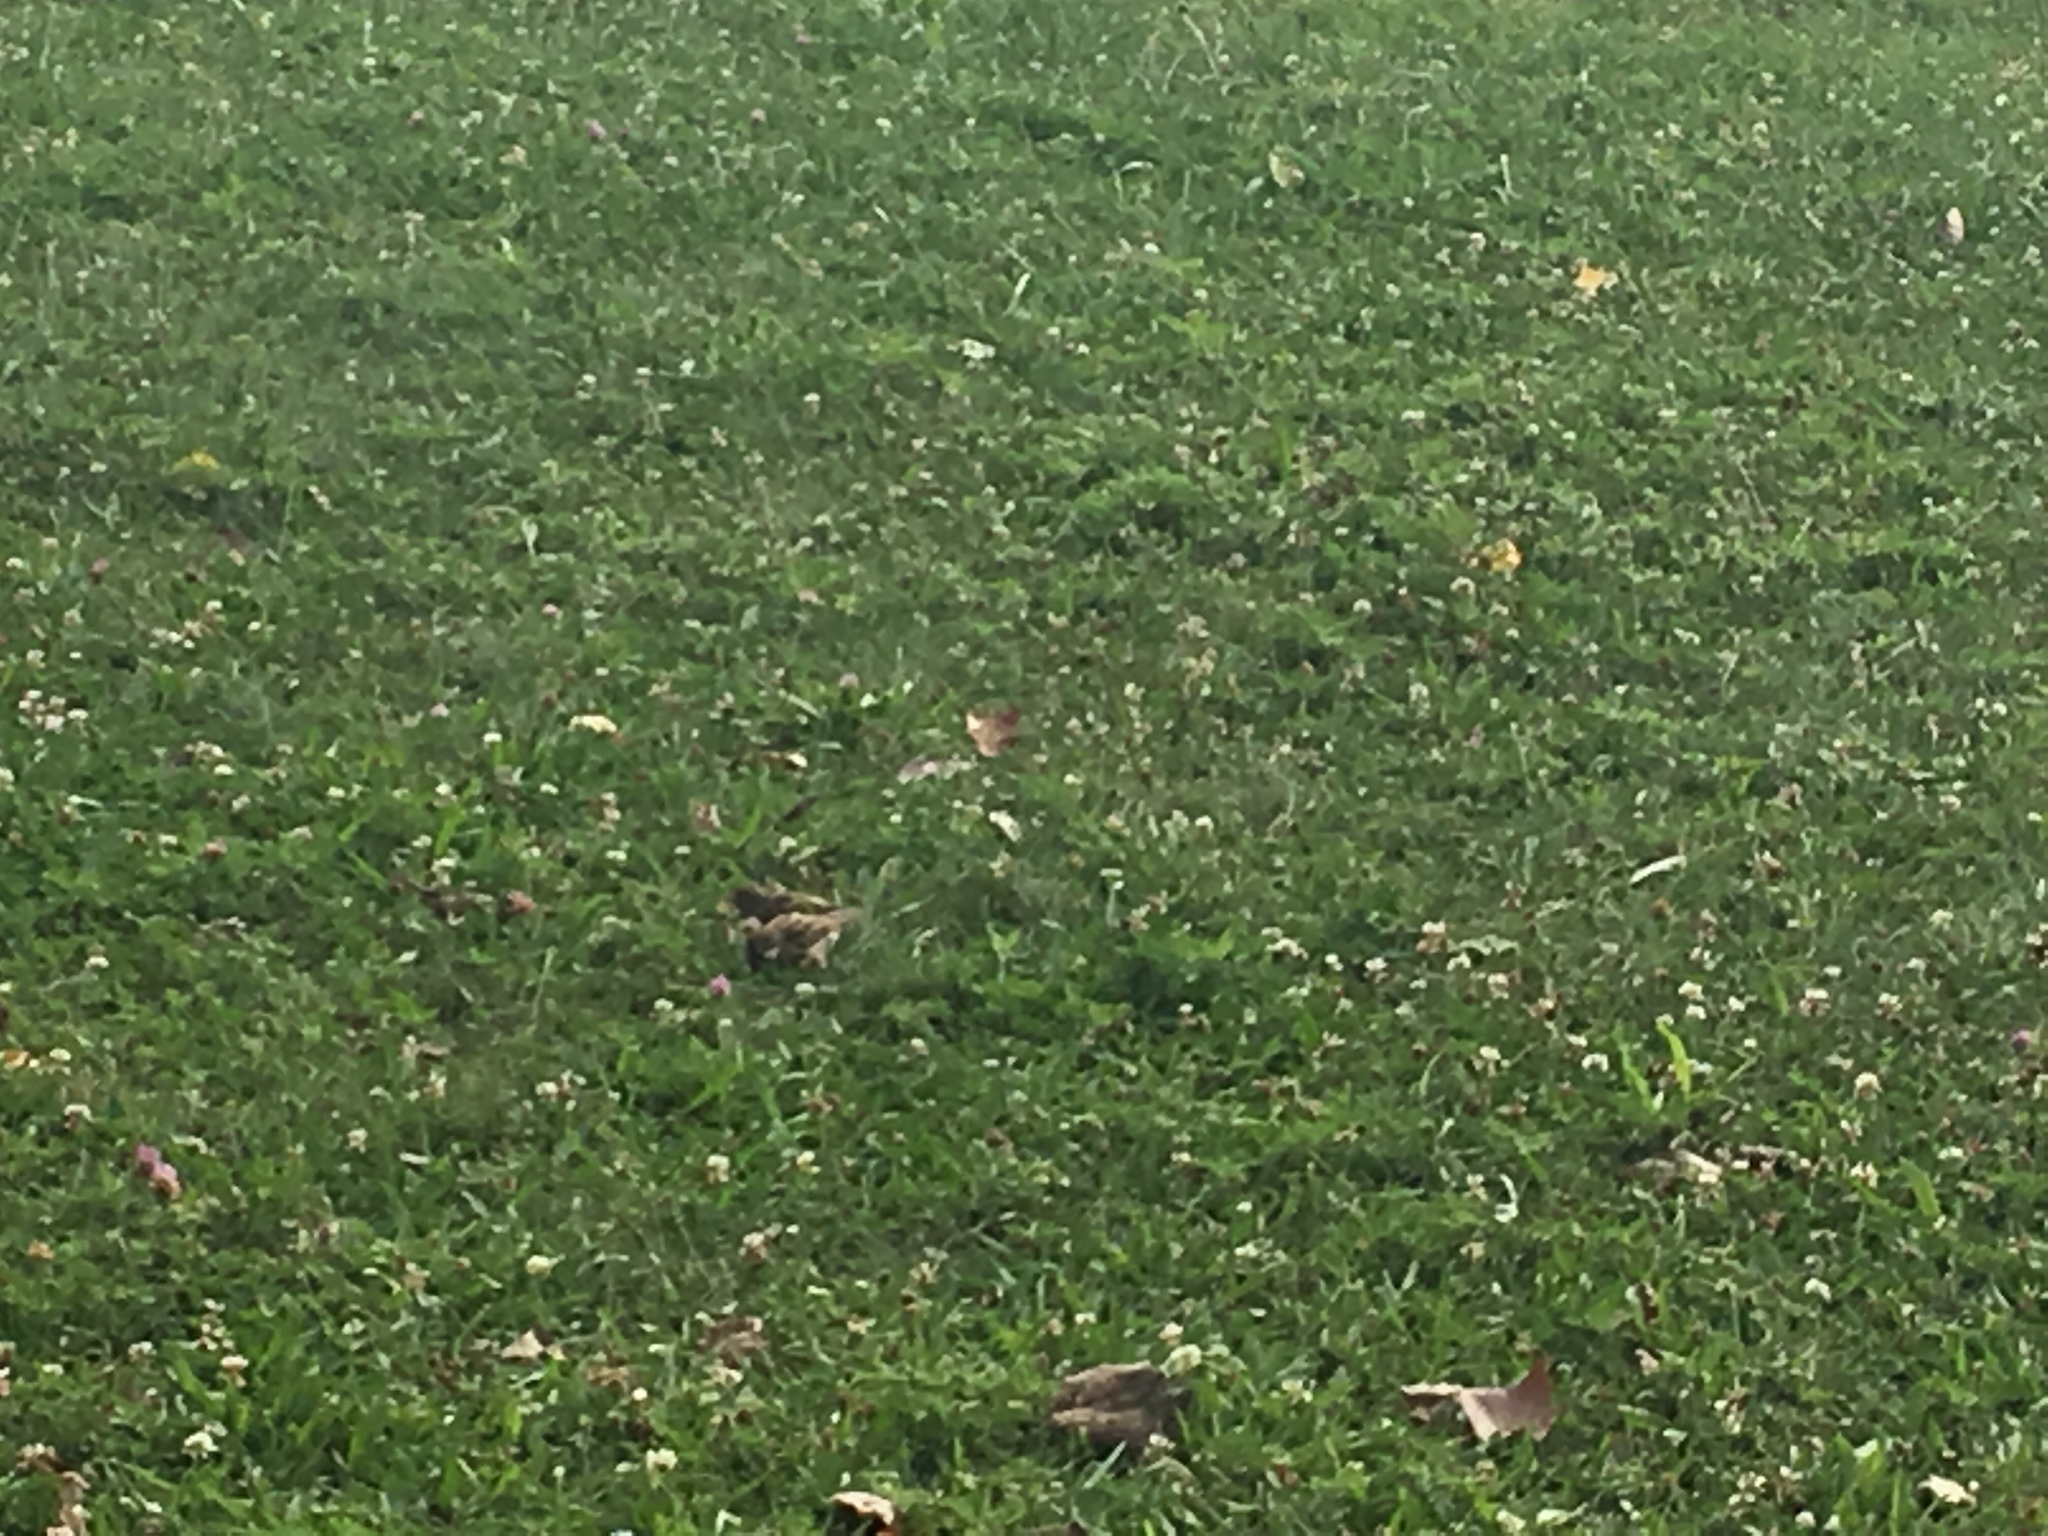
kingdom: Animalia
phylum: Chordata
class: Aves
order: Passeriformes
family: Passeridae
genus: Passer
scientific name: Passer domesticus
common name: House sparrow
